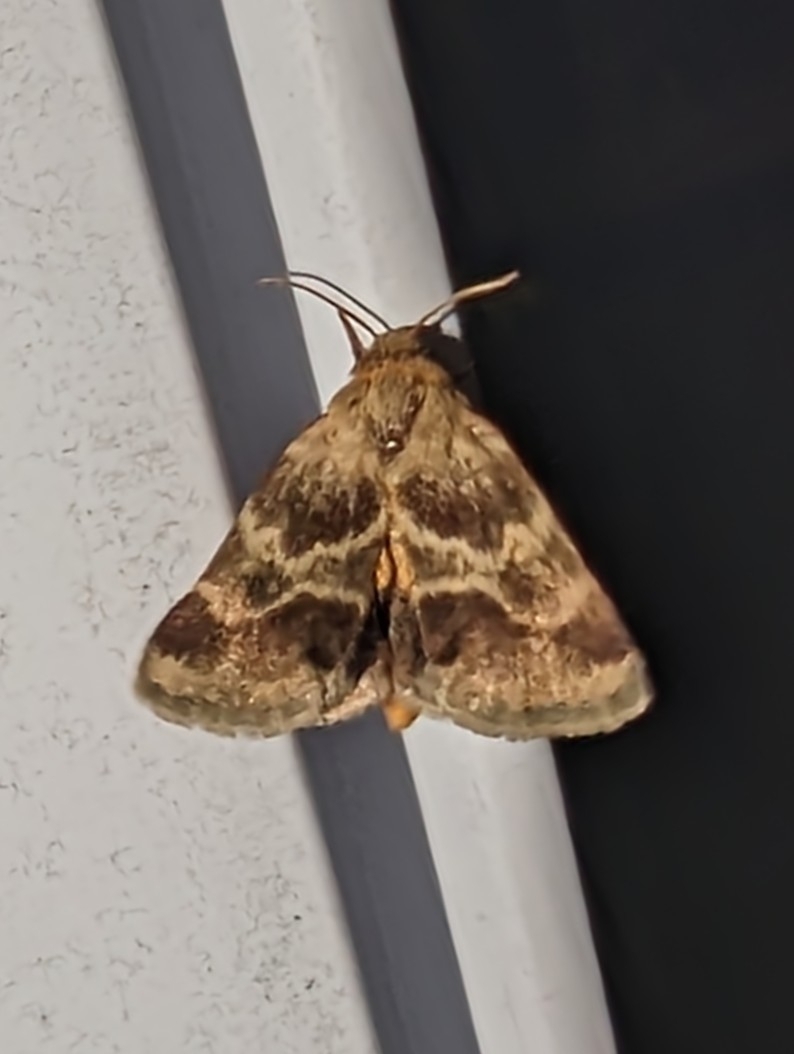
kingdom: Animalia
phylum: Arthropoda
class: Insecta
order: Lepidoptera
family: Noctuidae
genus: Schinia
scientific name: Schinia lynx
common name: Lynx flower moth
